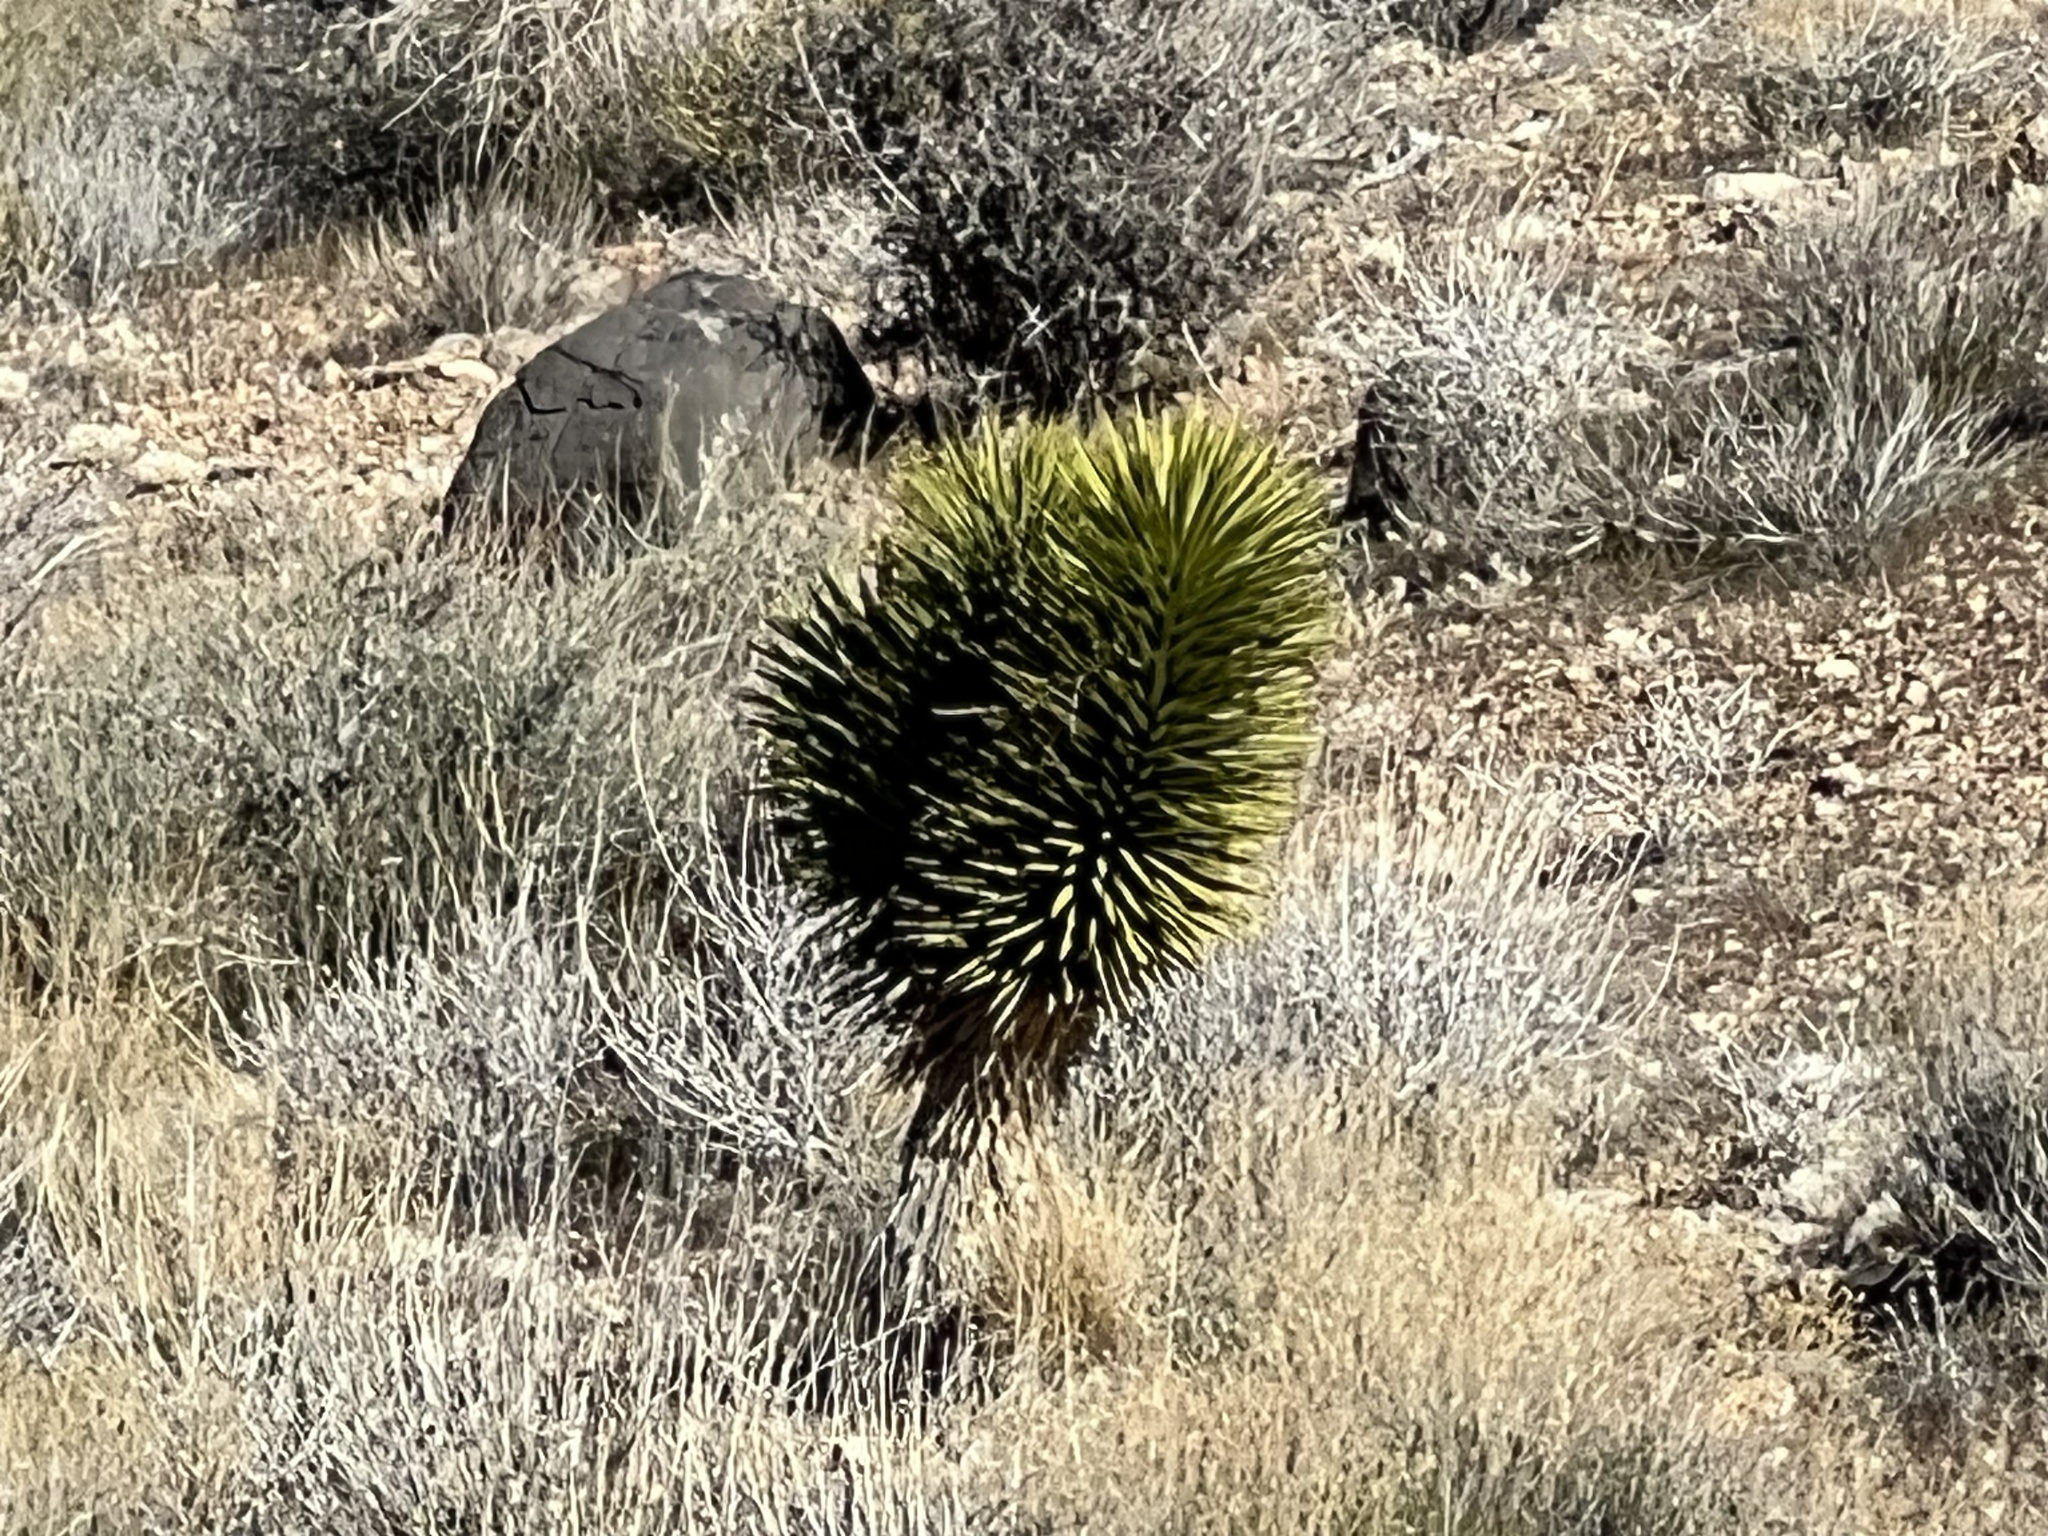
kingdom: Plantae
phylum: Tracheophyta
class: Liliopsida
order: Asparagales
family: Asparagaceae
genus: Yucca
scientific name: Yucca brevifolia
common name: Joshua tree
